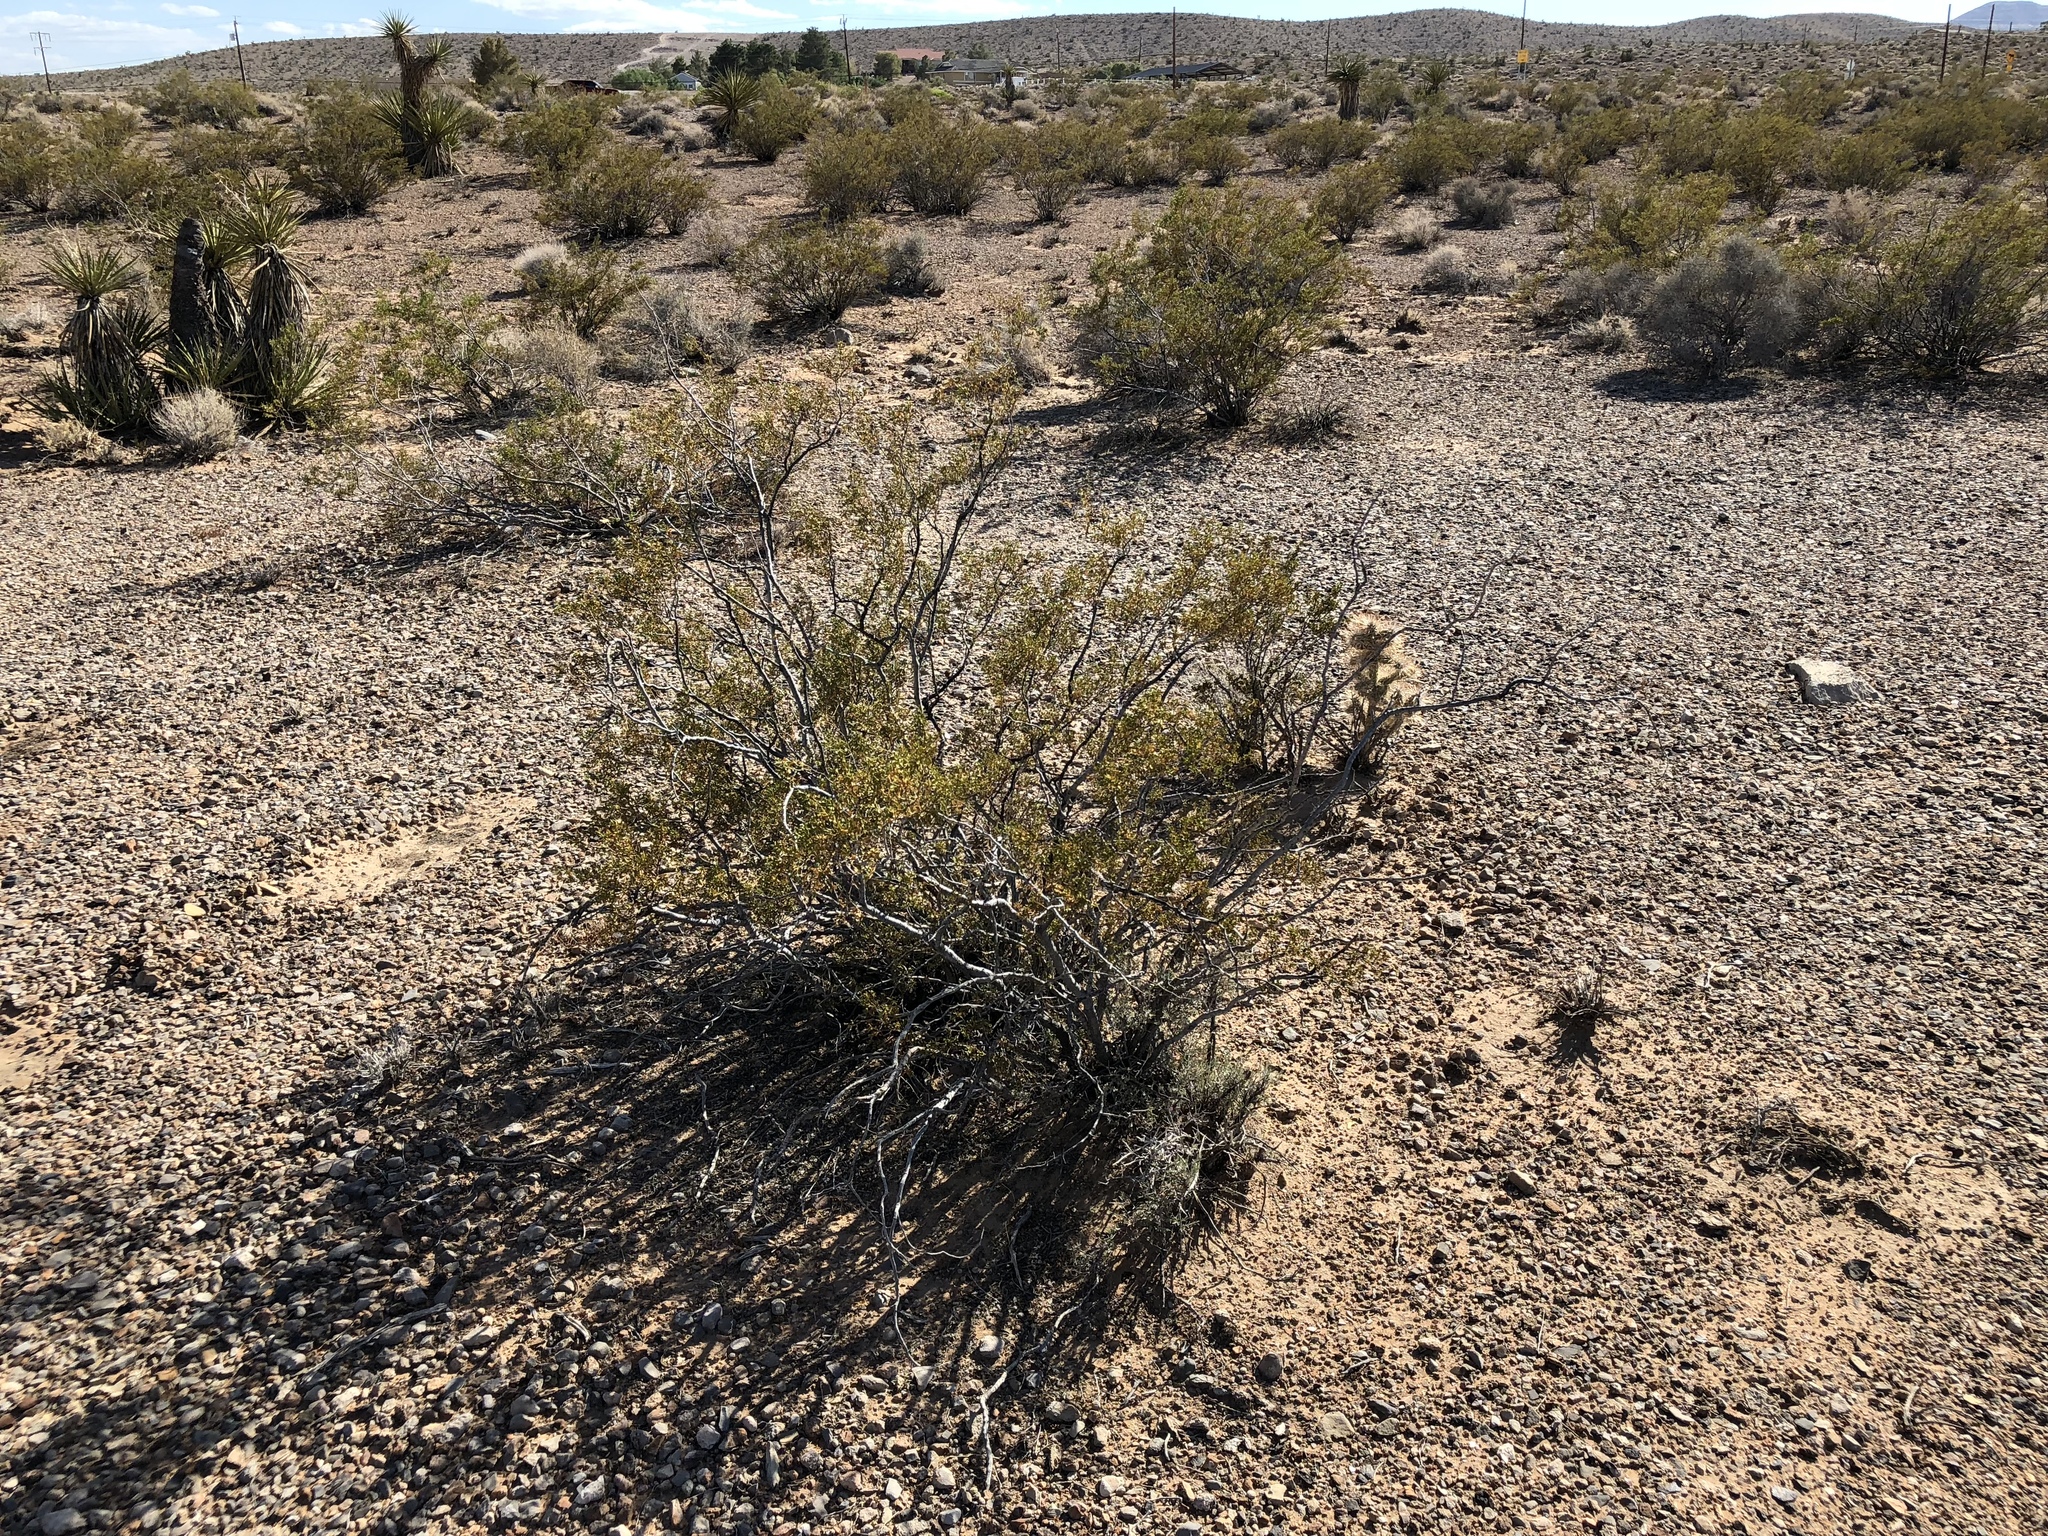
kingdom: Plantae
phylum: Tracheophyta
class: Magnoliopsida
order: Zygophyllales
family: Zygophyllaceae
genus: Larrea
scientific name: Larrea tridentata
